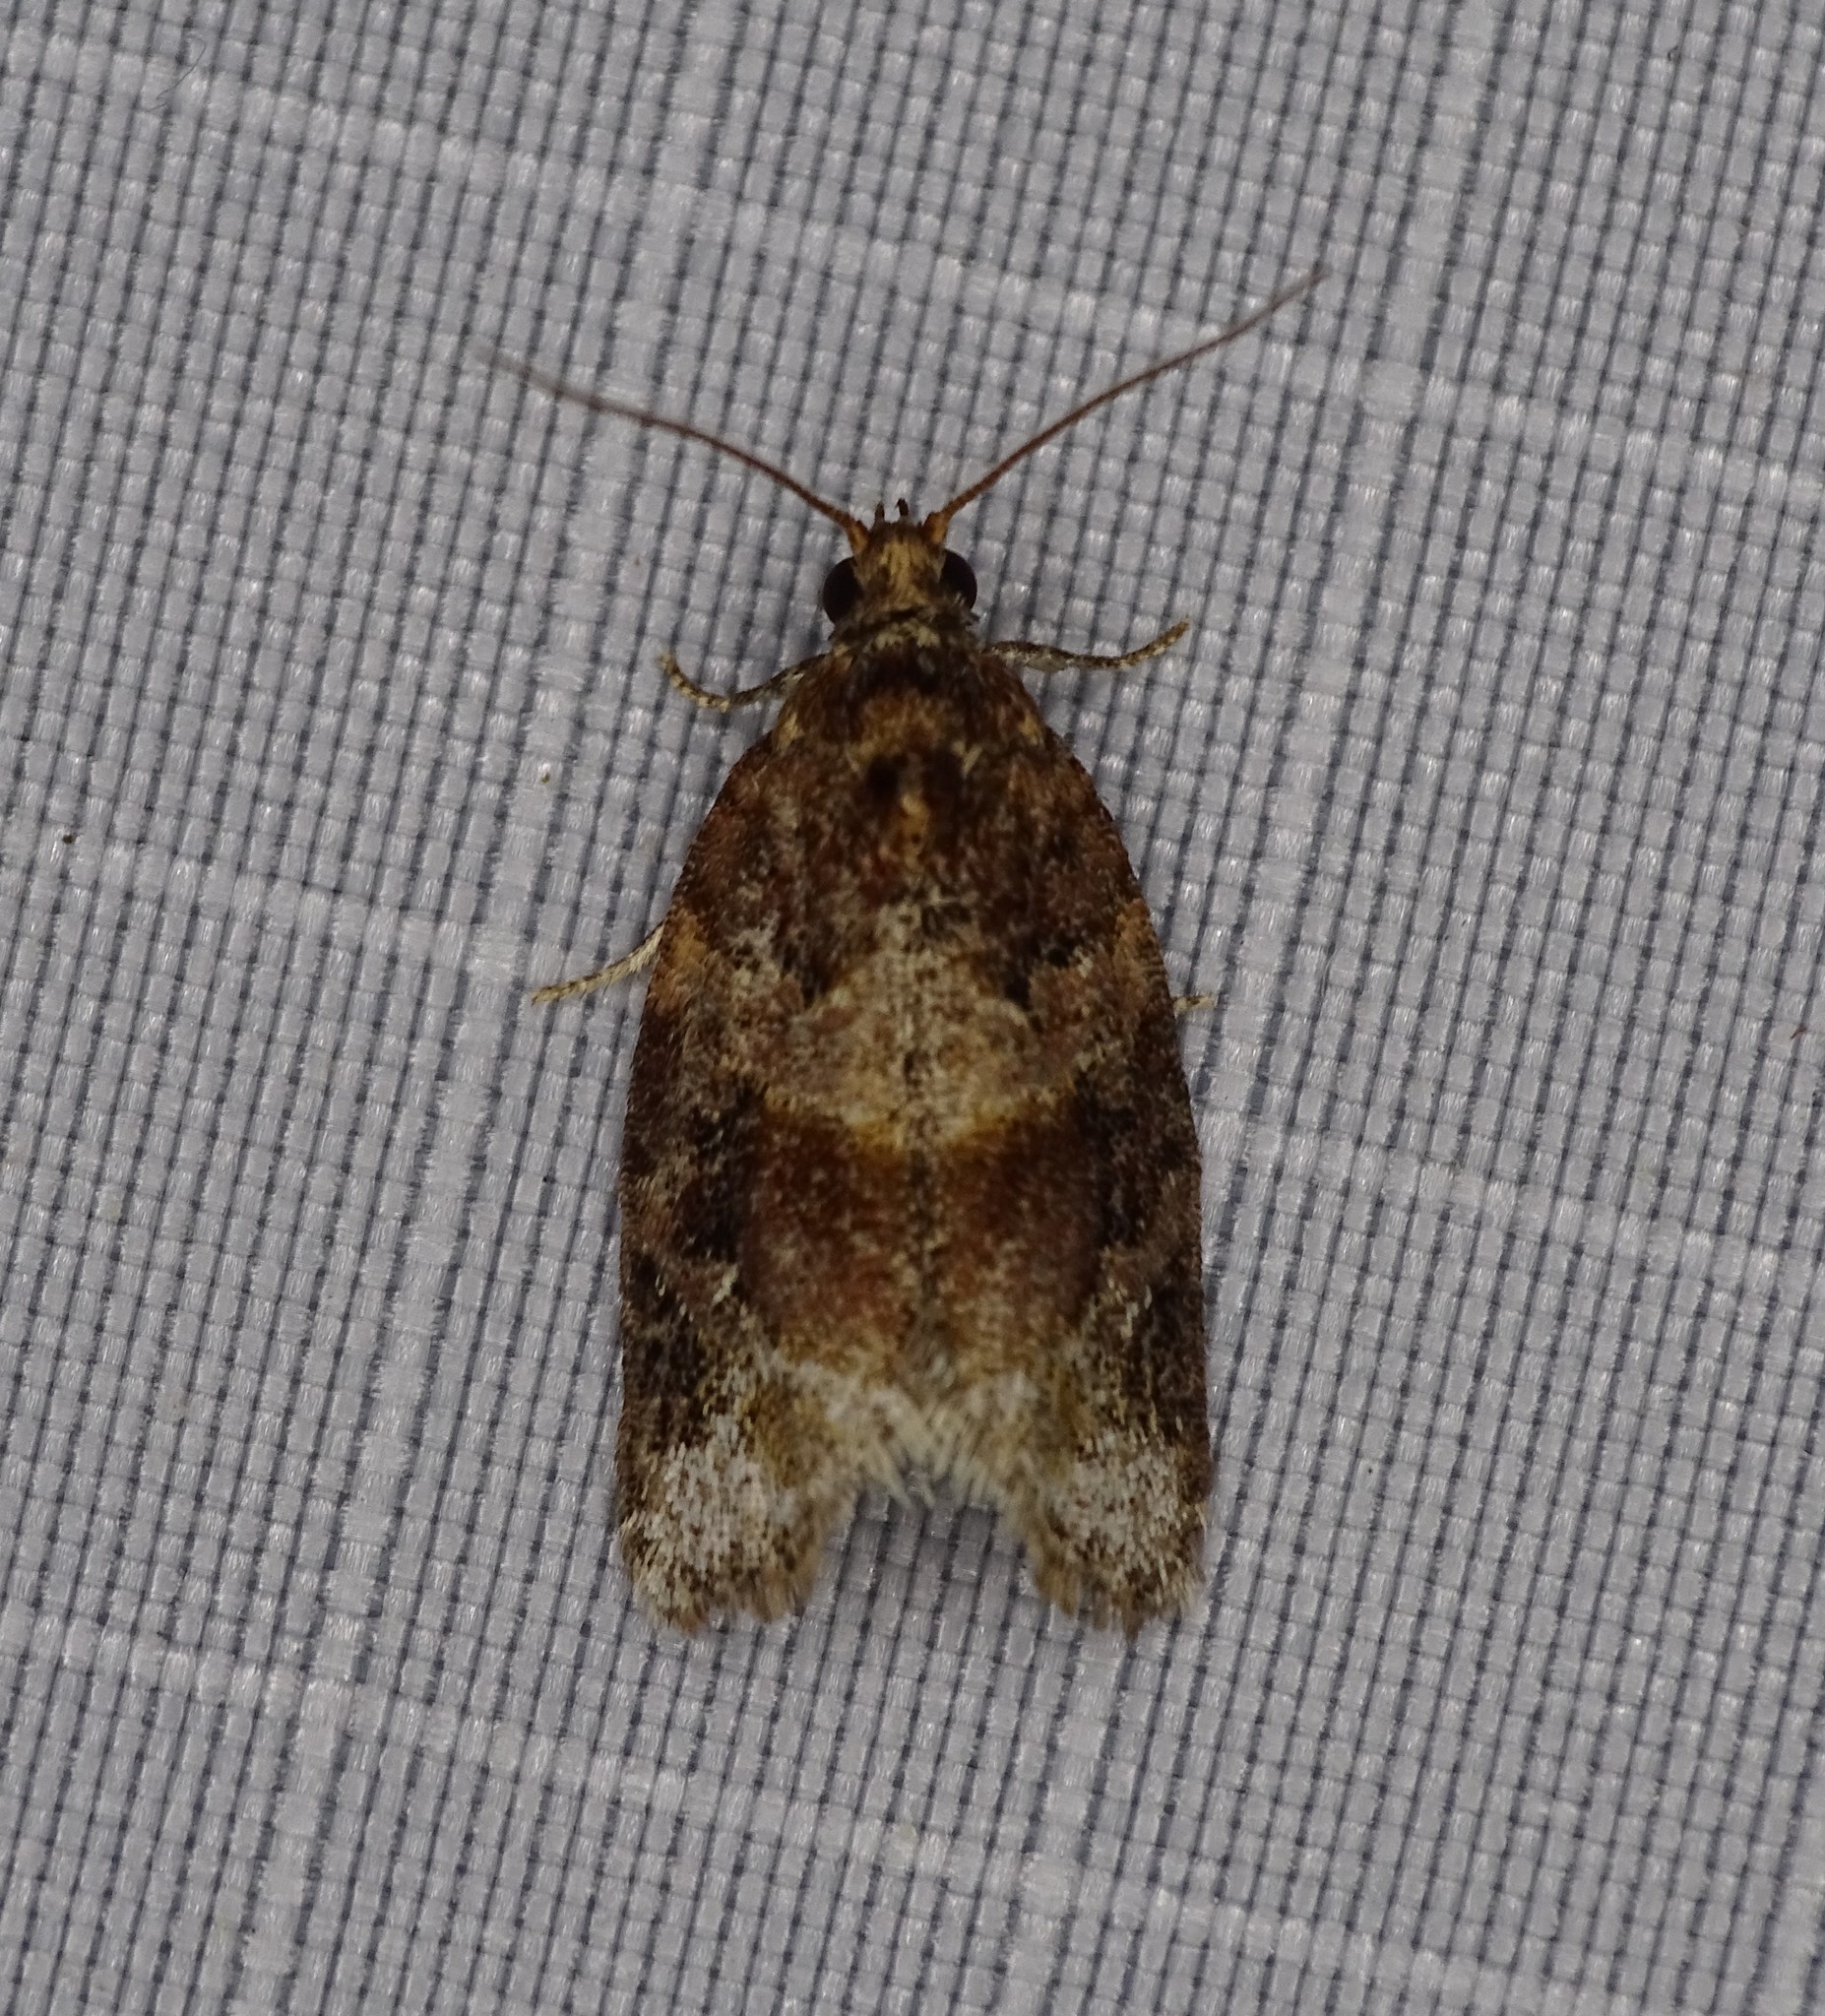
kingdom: Animalia
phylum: Arthropoda
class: Insecta
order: Lepidoptera
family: Tortricidae
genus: Argyrotaenia
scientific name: Argyrotaenia velutinana
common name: Red-banded leafroller moth
